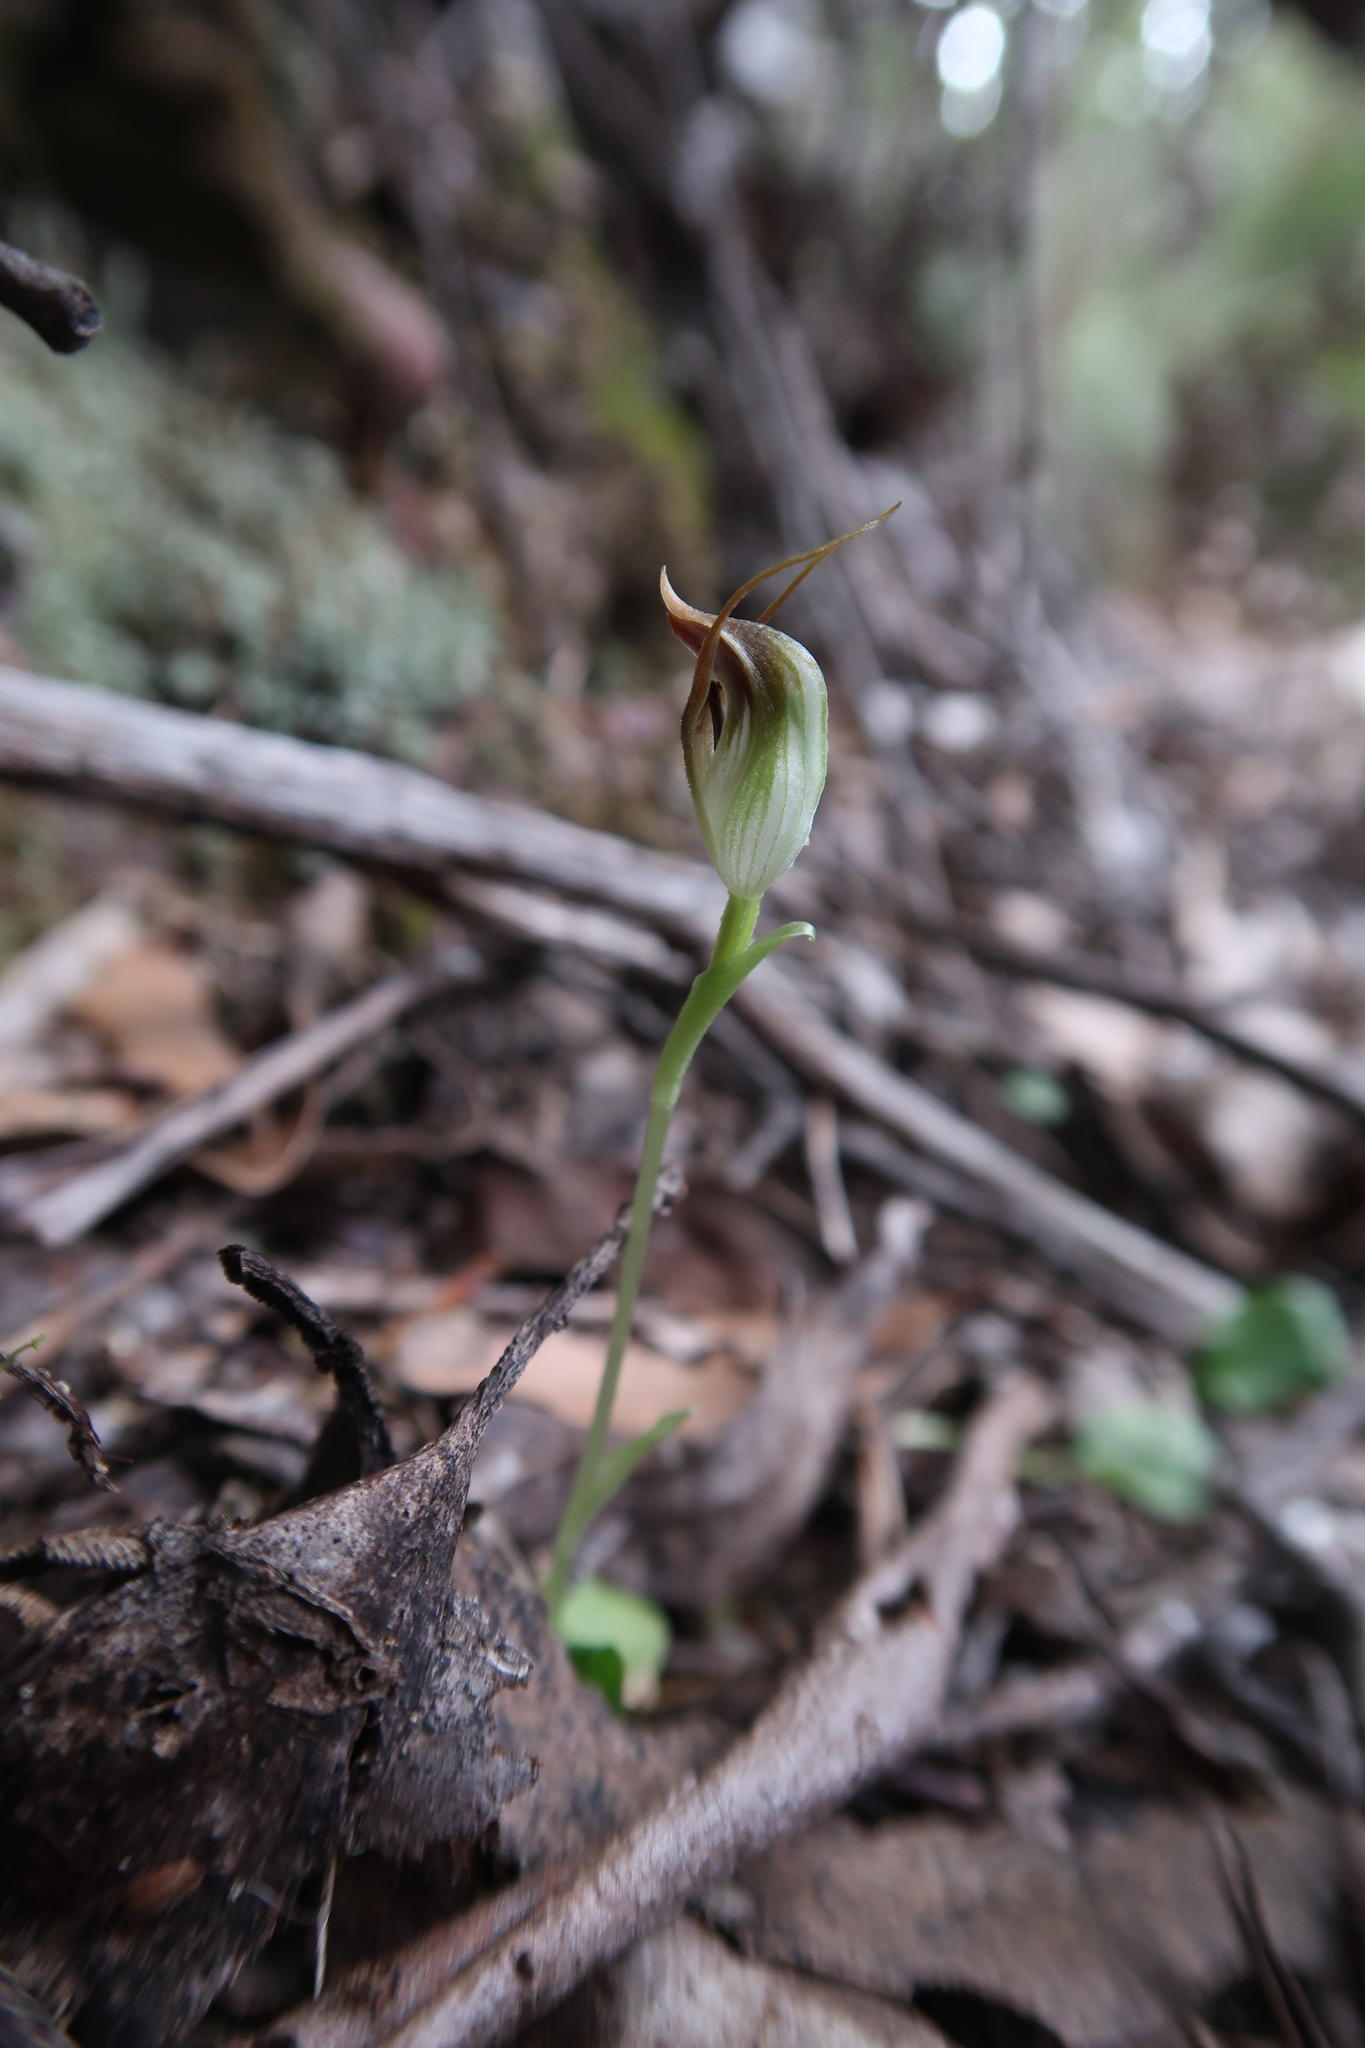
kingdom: Plantae
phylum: Tracheophyta
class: Liliopsida
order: Asparagales
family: Orchidaceae
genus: Pterostylis
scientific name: Pterostylis pedunculata
